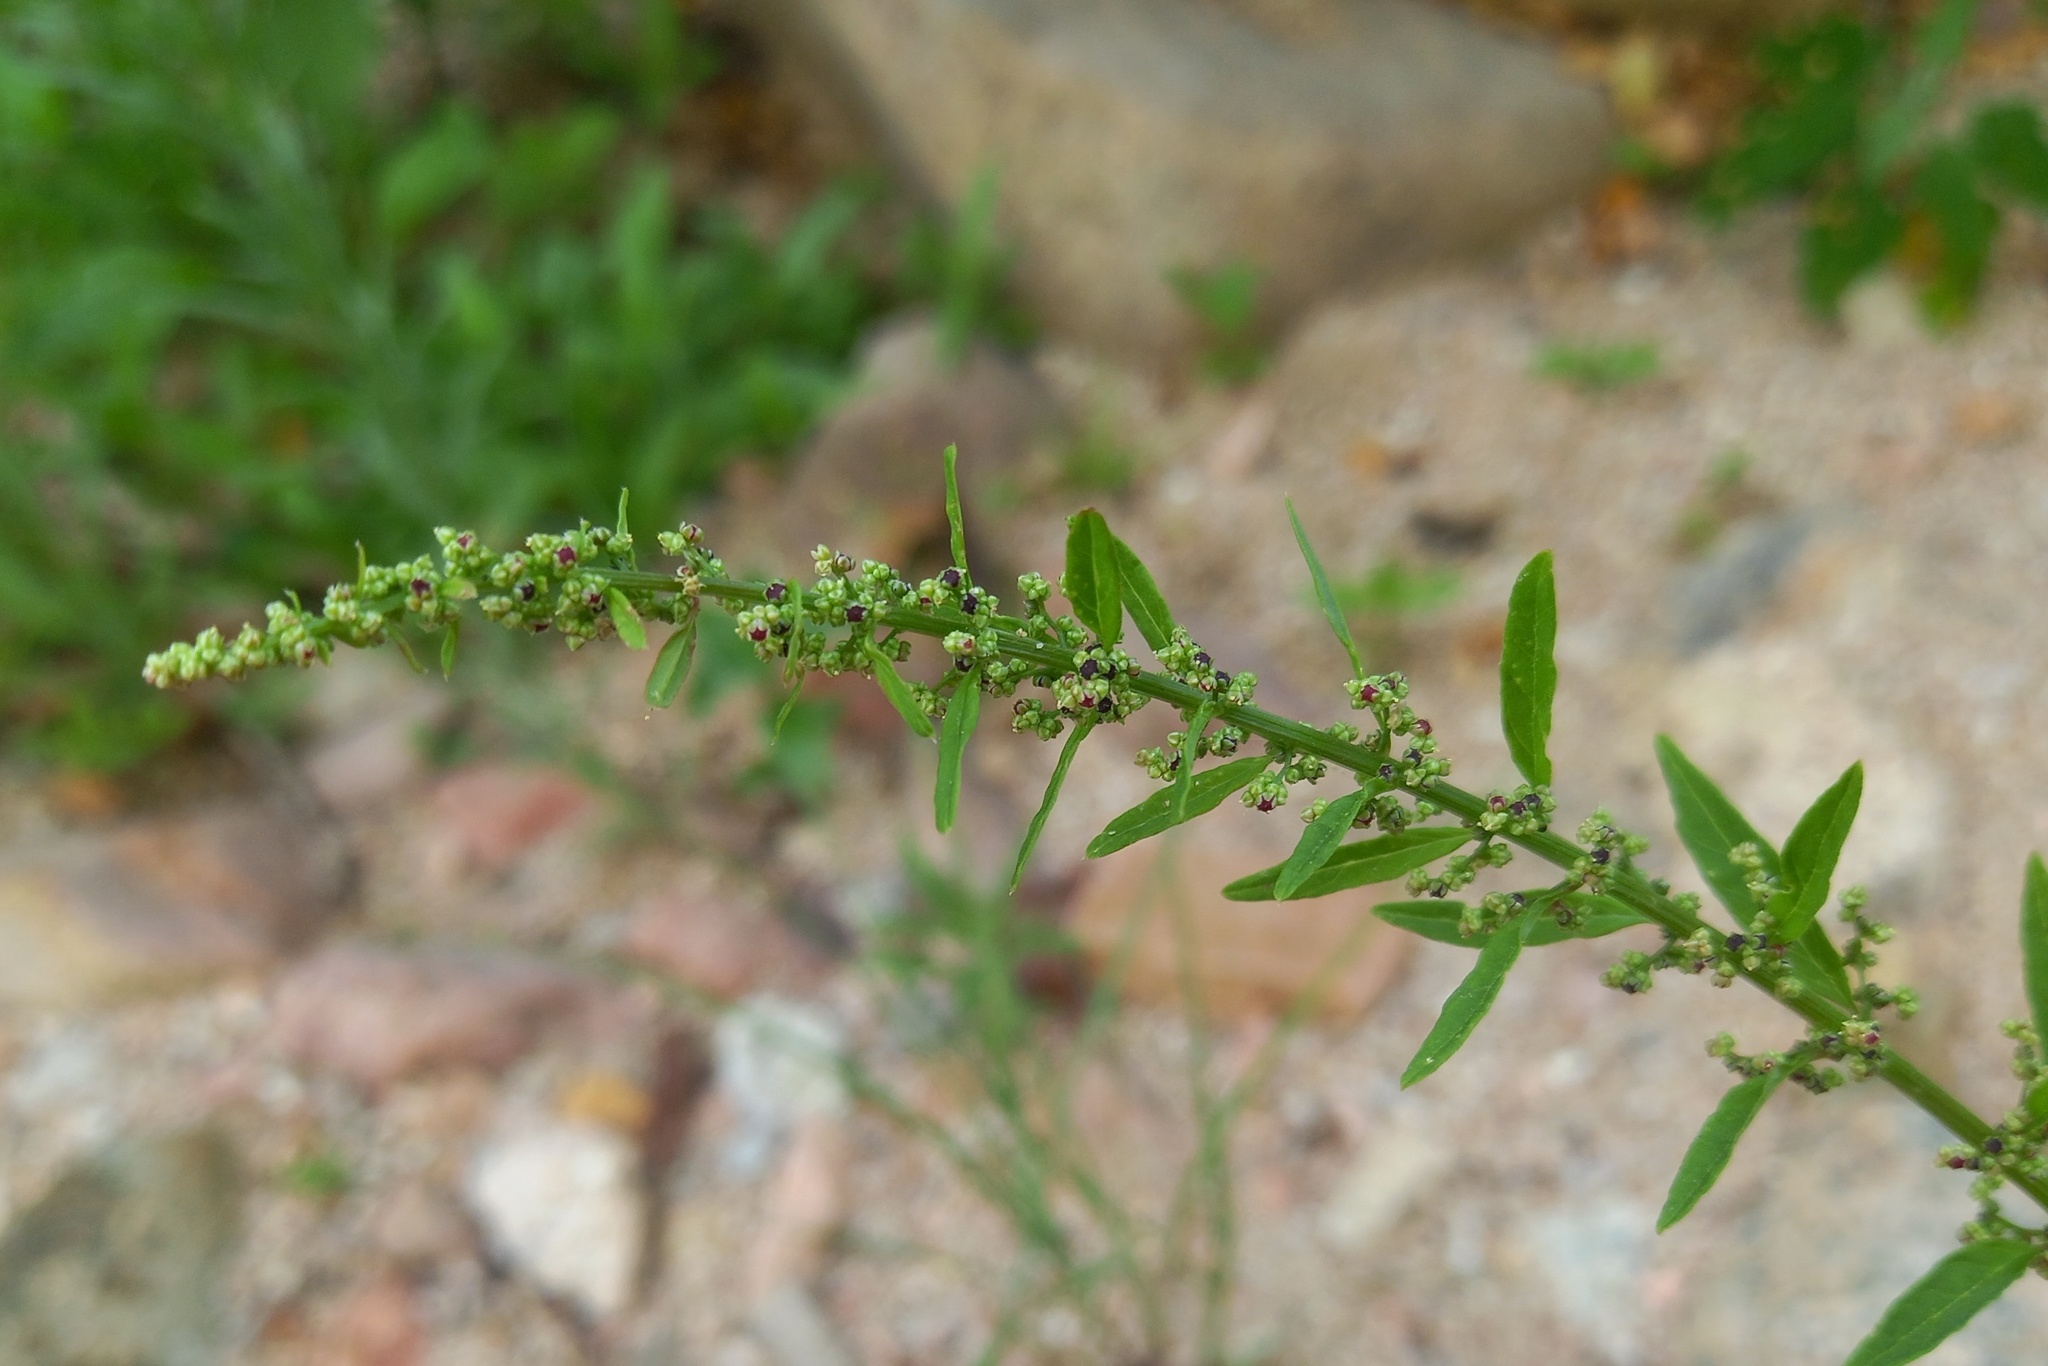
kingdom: Plantae
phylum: Tracheophyta
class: Magnoliopsida
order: Caryophyllales
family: Amaranthaceae
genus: Lipandra
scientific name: Lipandra polysperma
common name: Many-seed goosefoot
